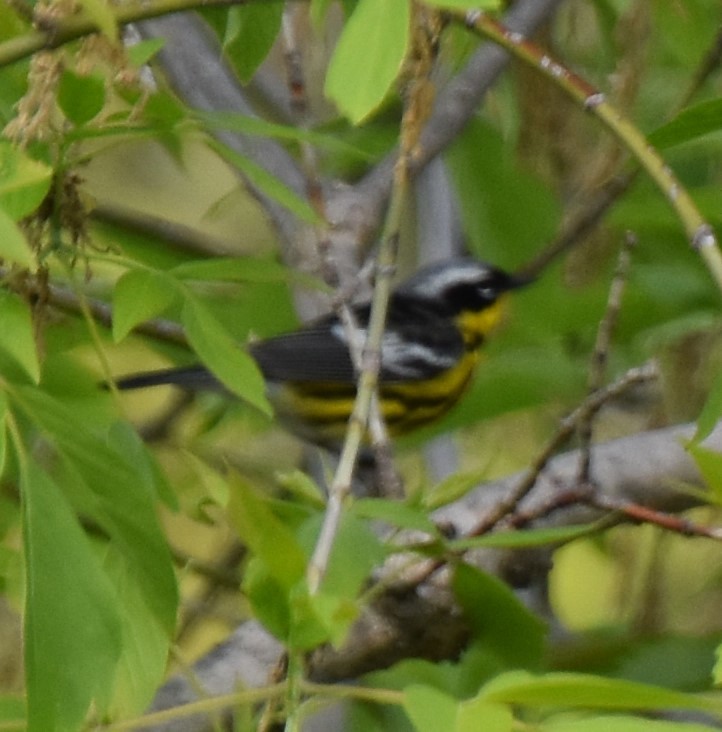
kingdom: Animalia
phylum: Chordata
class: Aves
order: Passeriformes
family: Parulidae
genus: Setophaga
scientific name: Setophaga magnolia
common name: Magnolia warbler
